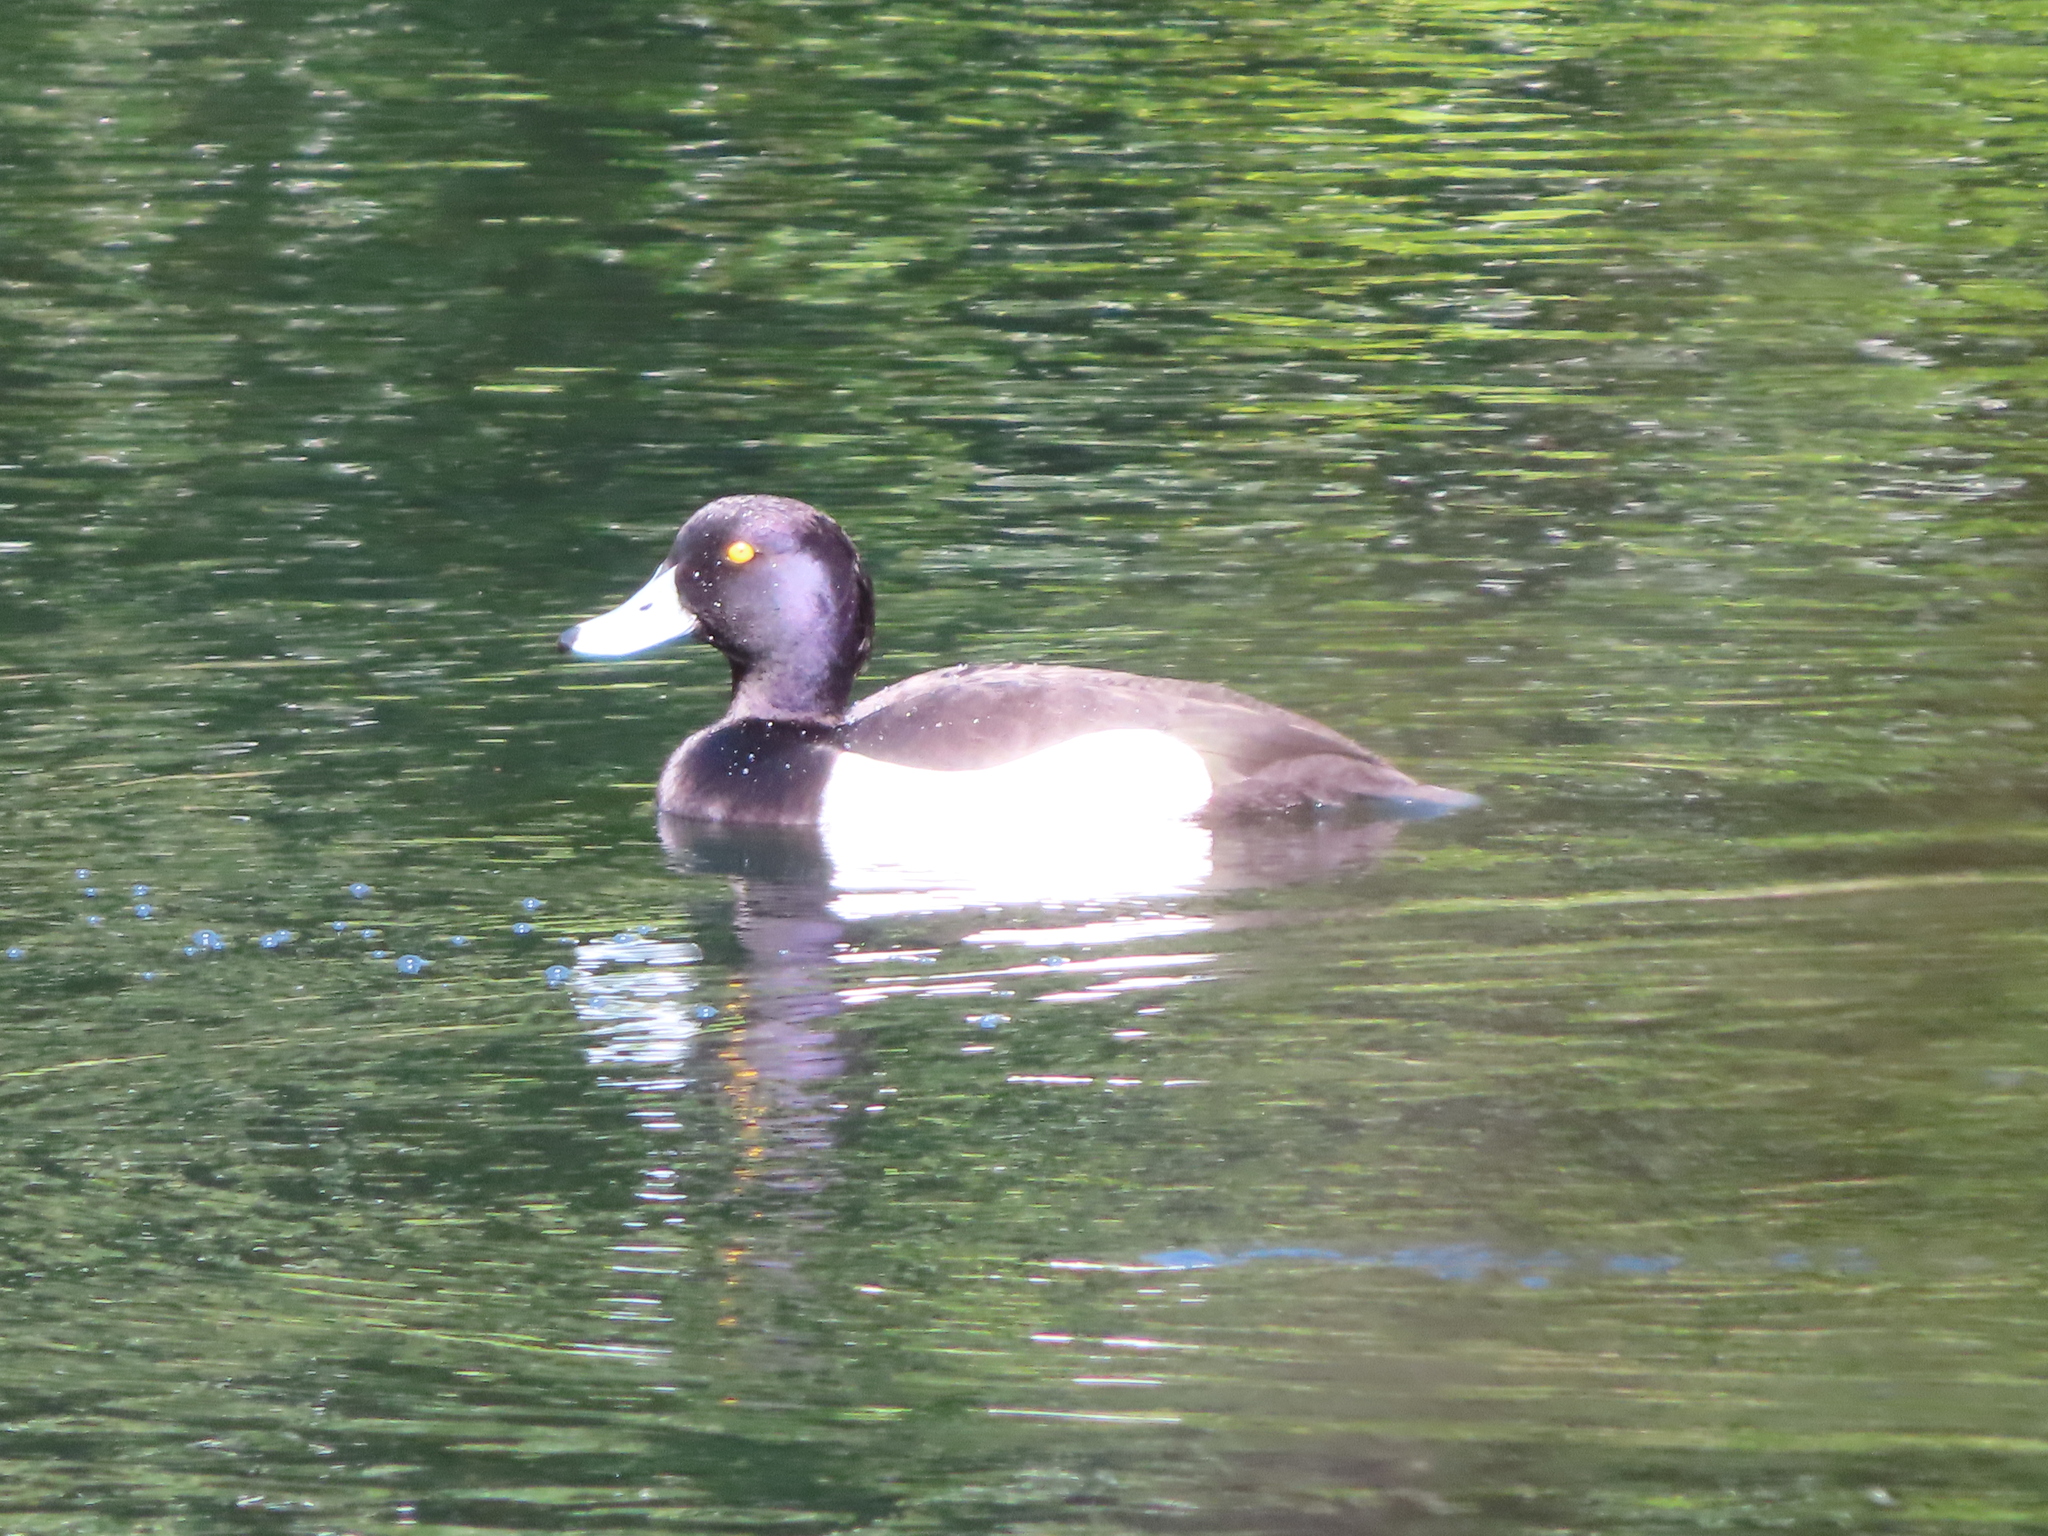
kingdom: Animalia
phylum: Chordata
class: Aves
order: Anseriformes
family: Anatidae
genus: Aythya
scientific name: Aythya fuligula
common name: Tufted duck
